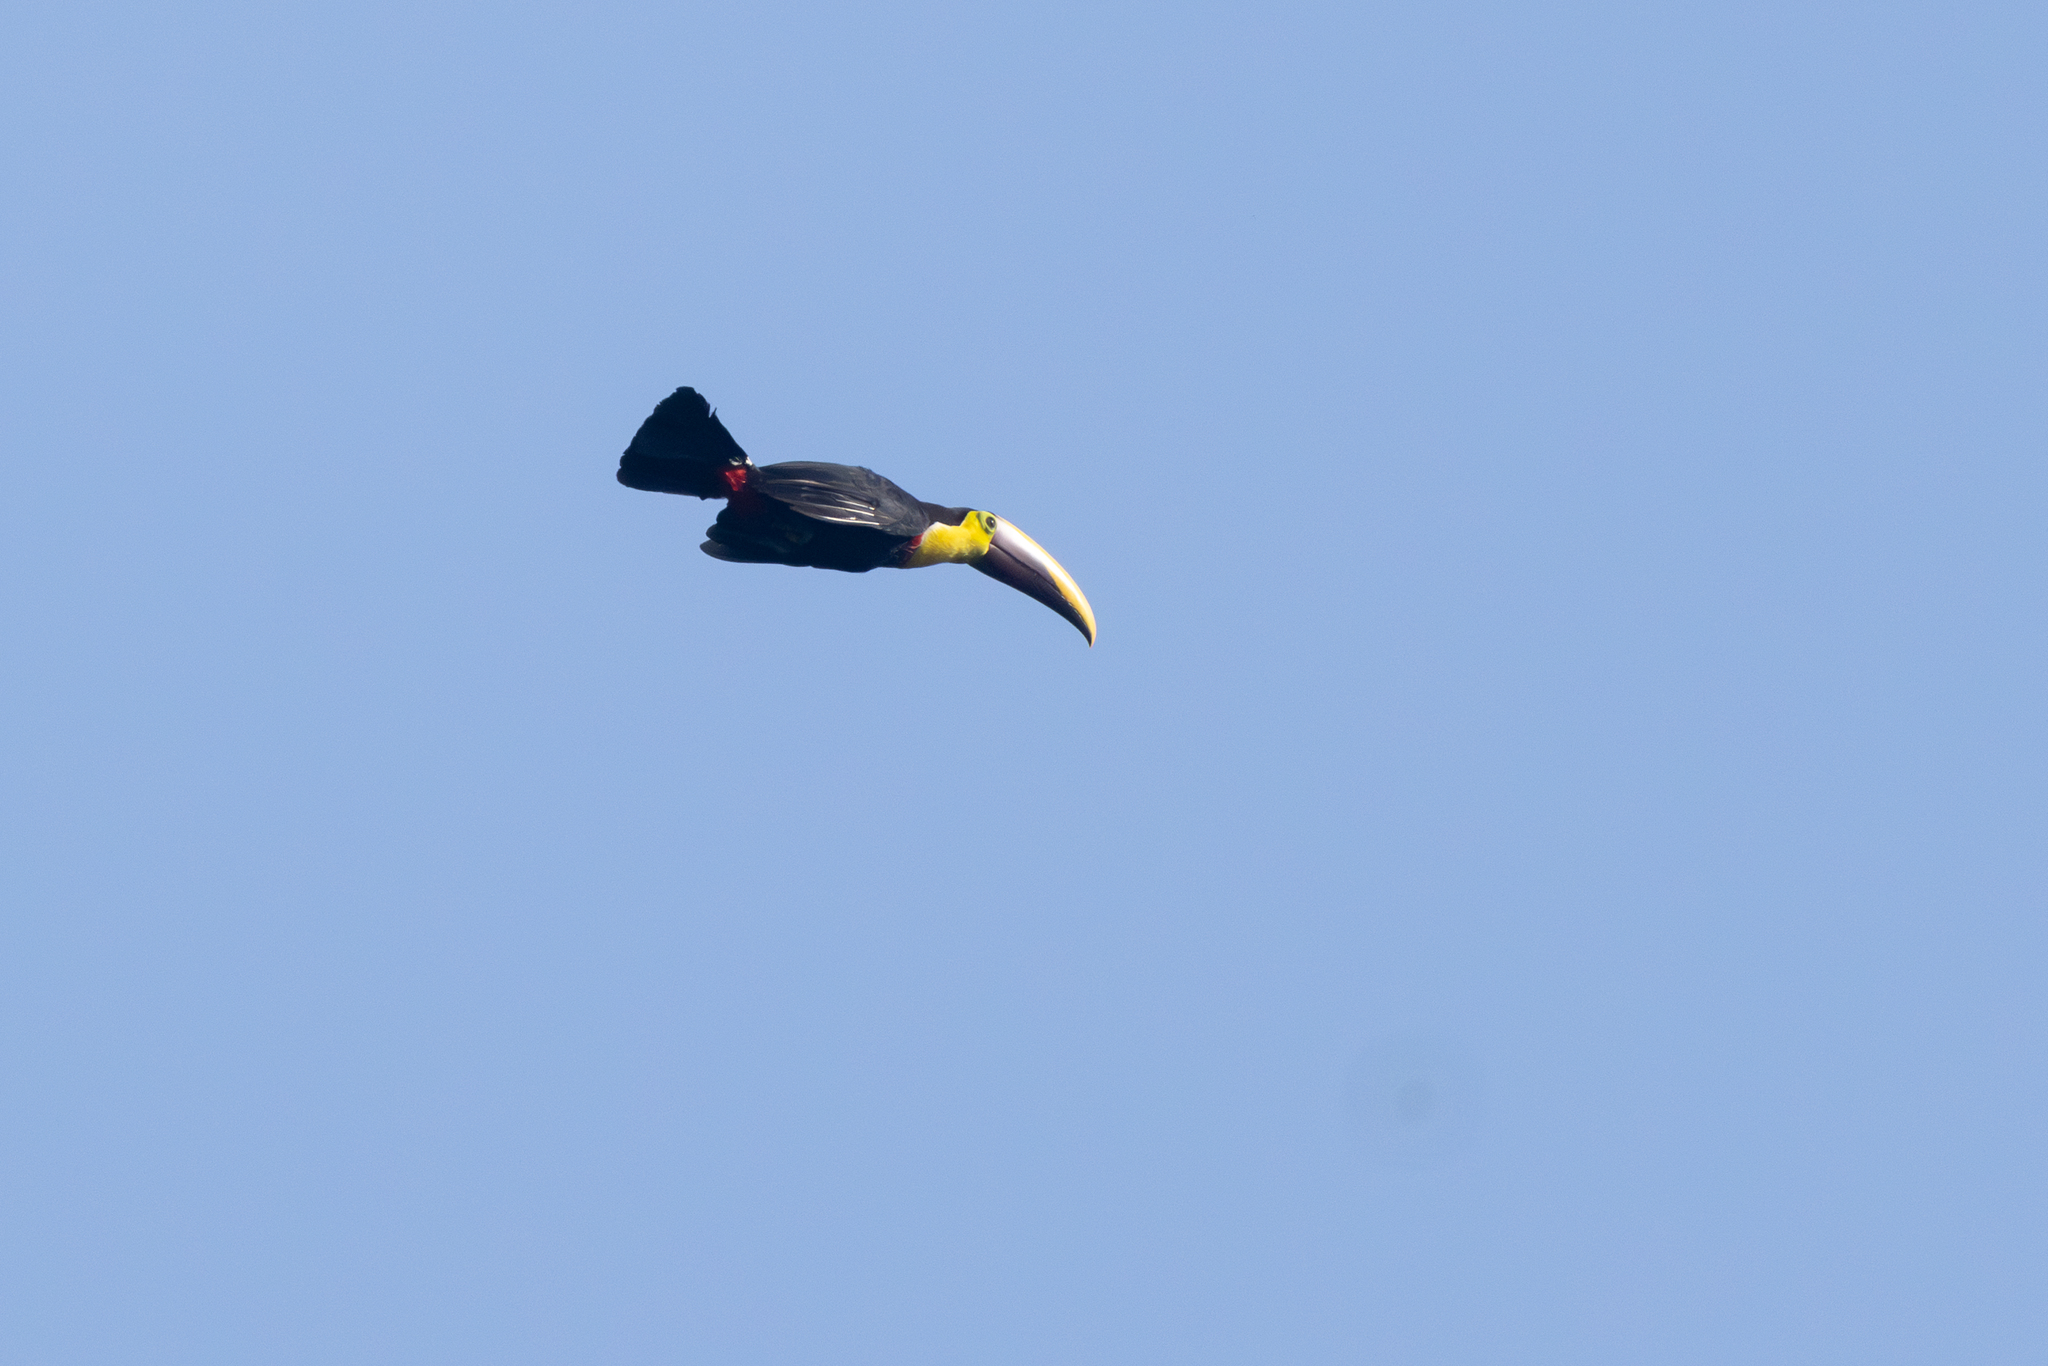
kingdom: Animalia
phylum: Chordata
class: Aves
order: Piciformes
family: Ramphastidae
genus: Ramphastos
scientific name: Ramphastos ambiguus
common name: Yellow-throated toucan
